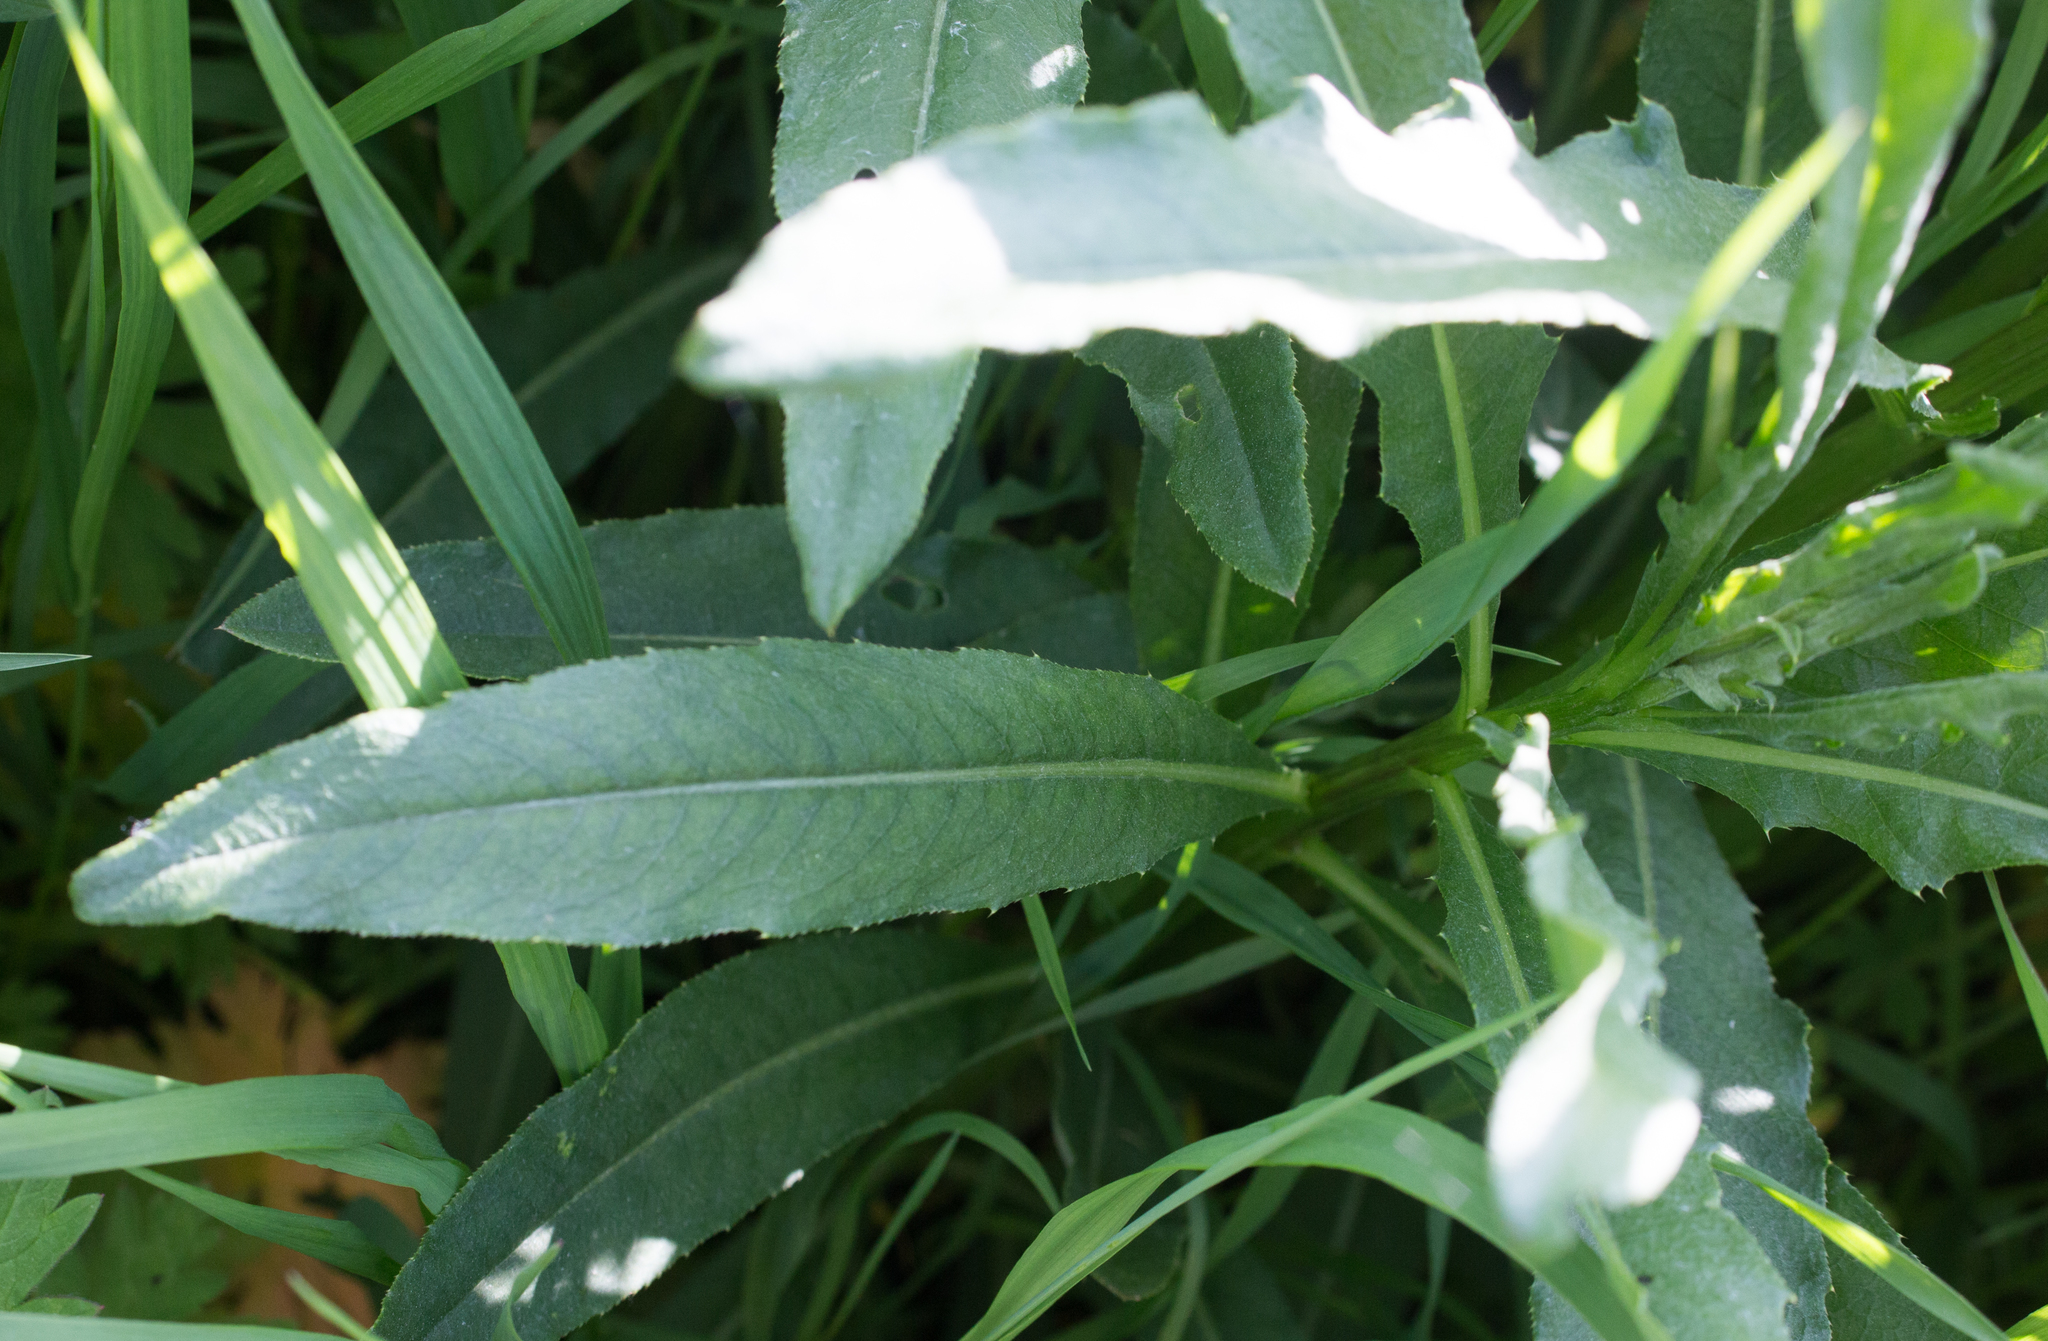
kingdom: Plantae
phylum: Tracheophyta
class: Magnoliopsida
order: Asterales
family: Asteraceae
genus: Cirsium
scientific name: Cirsium arvense
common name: Creeping thistle
